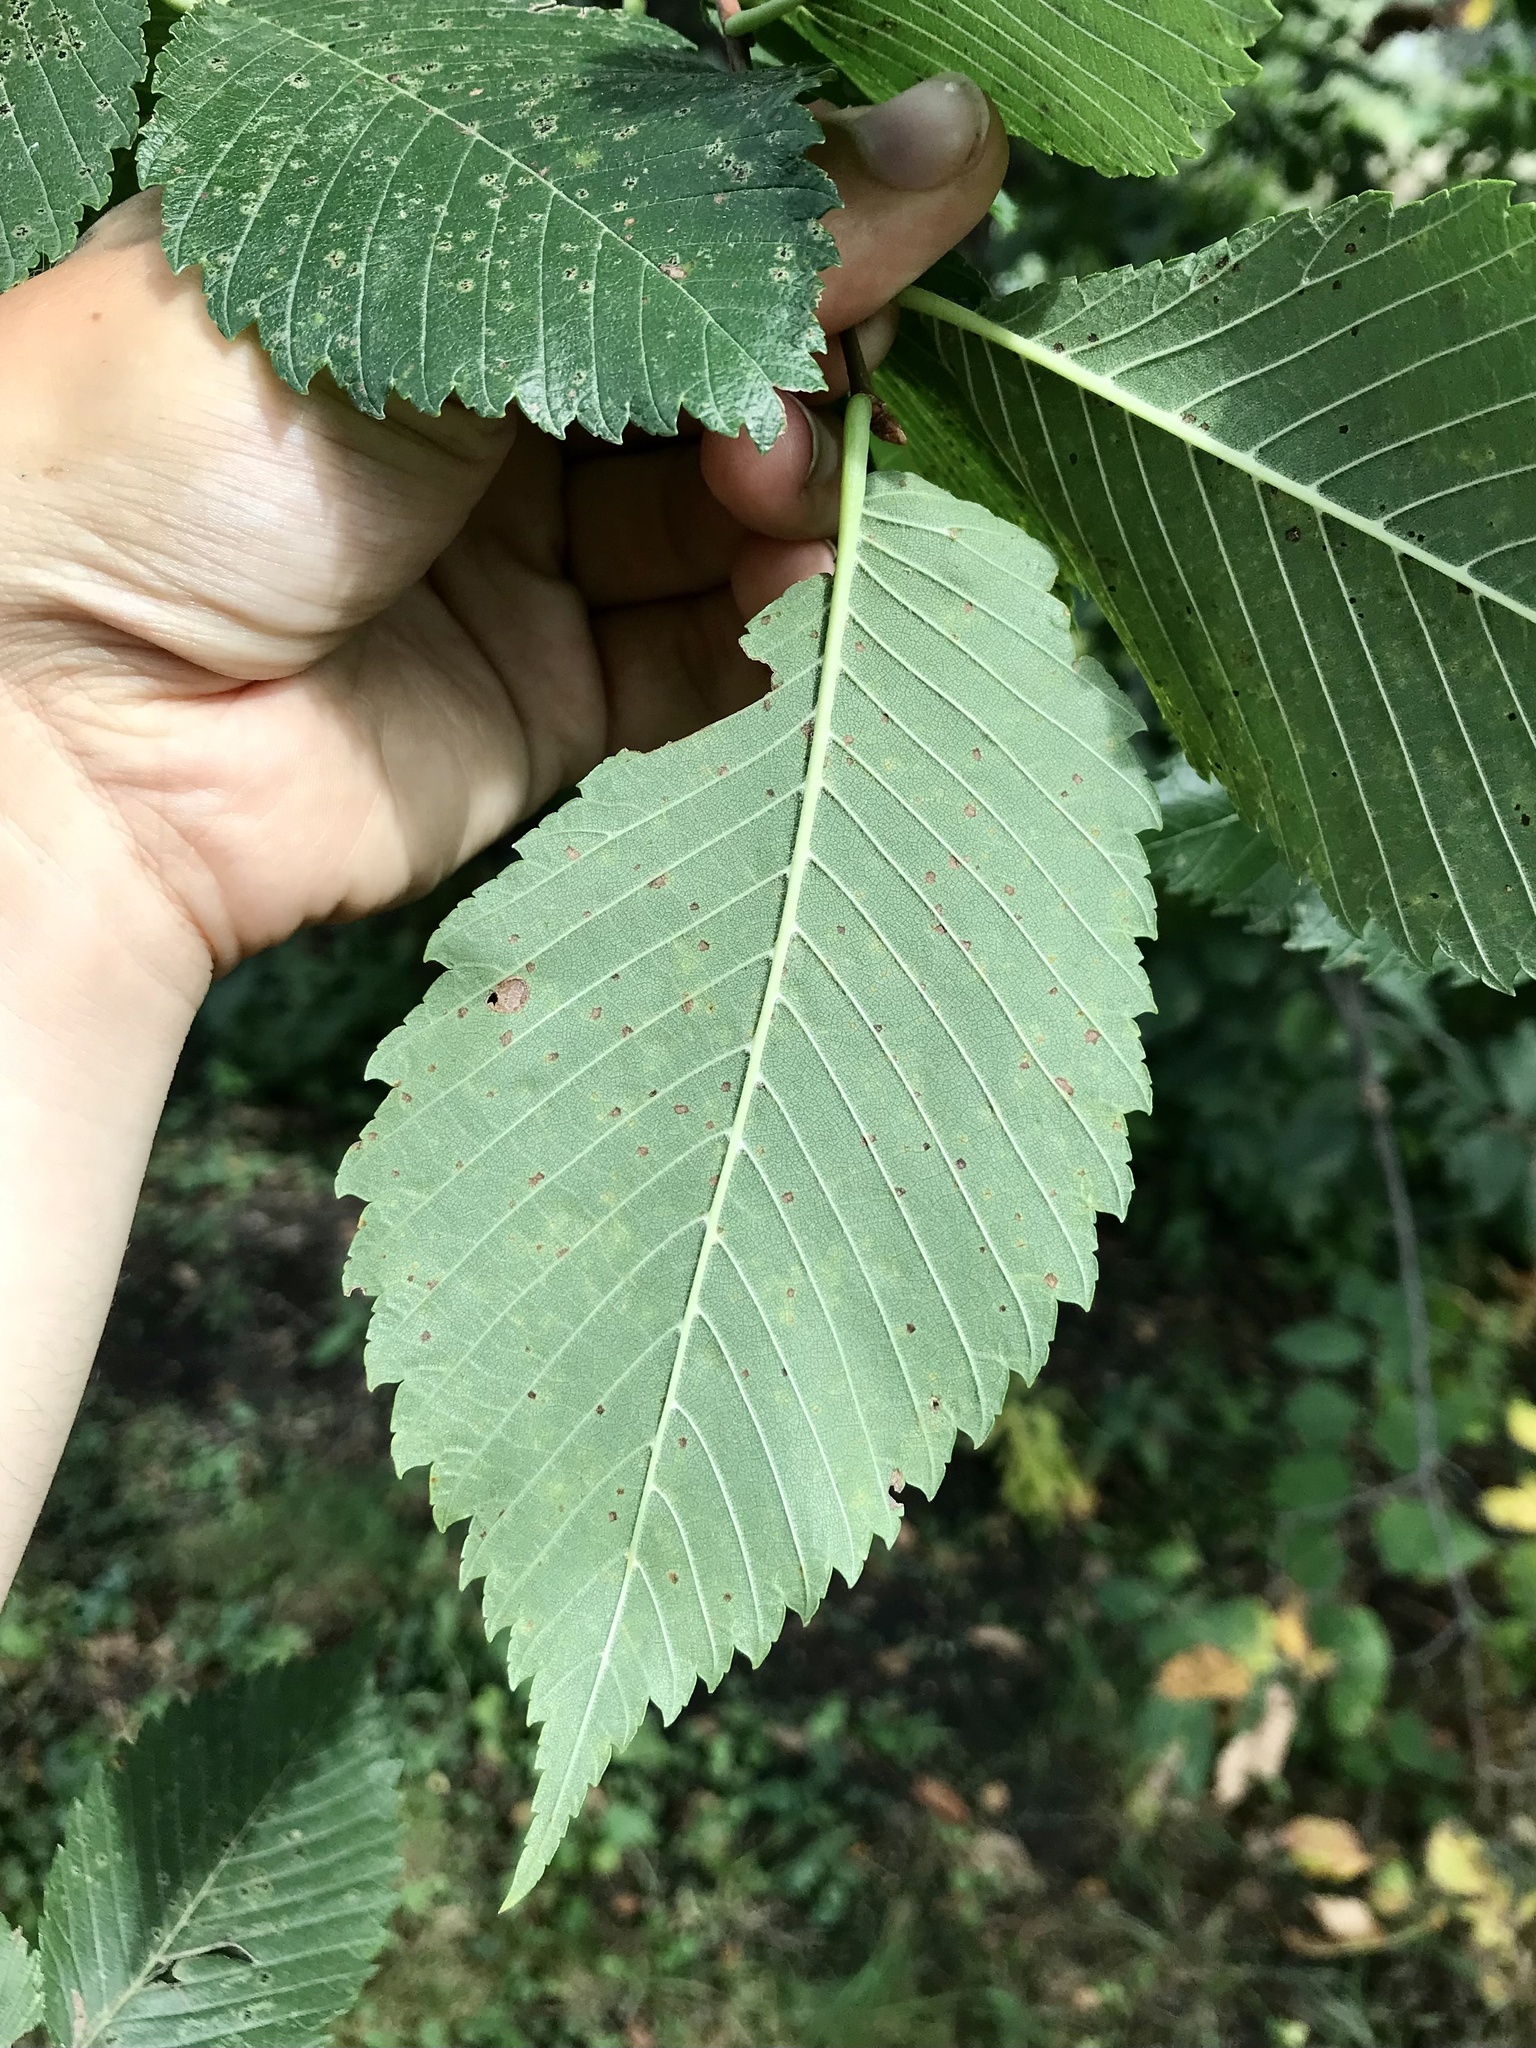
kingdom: Plantae
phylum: Tracheophyta
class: Magnoliopsida
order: Rosales
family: Ulmaceae
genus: Ulmus
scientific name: Ulmus americana
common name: American elm
